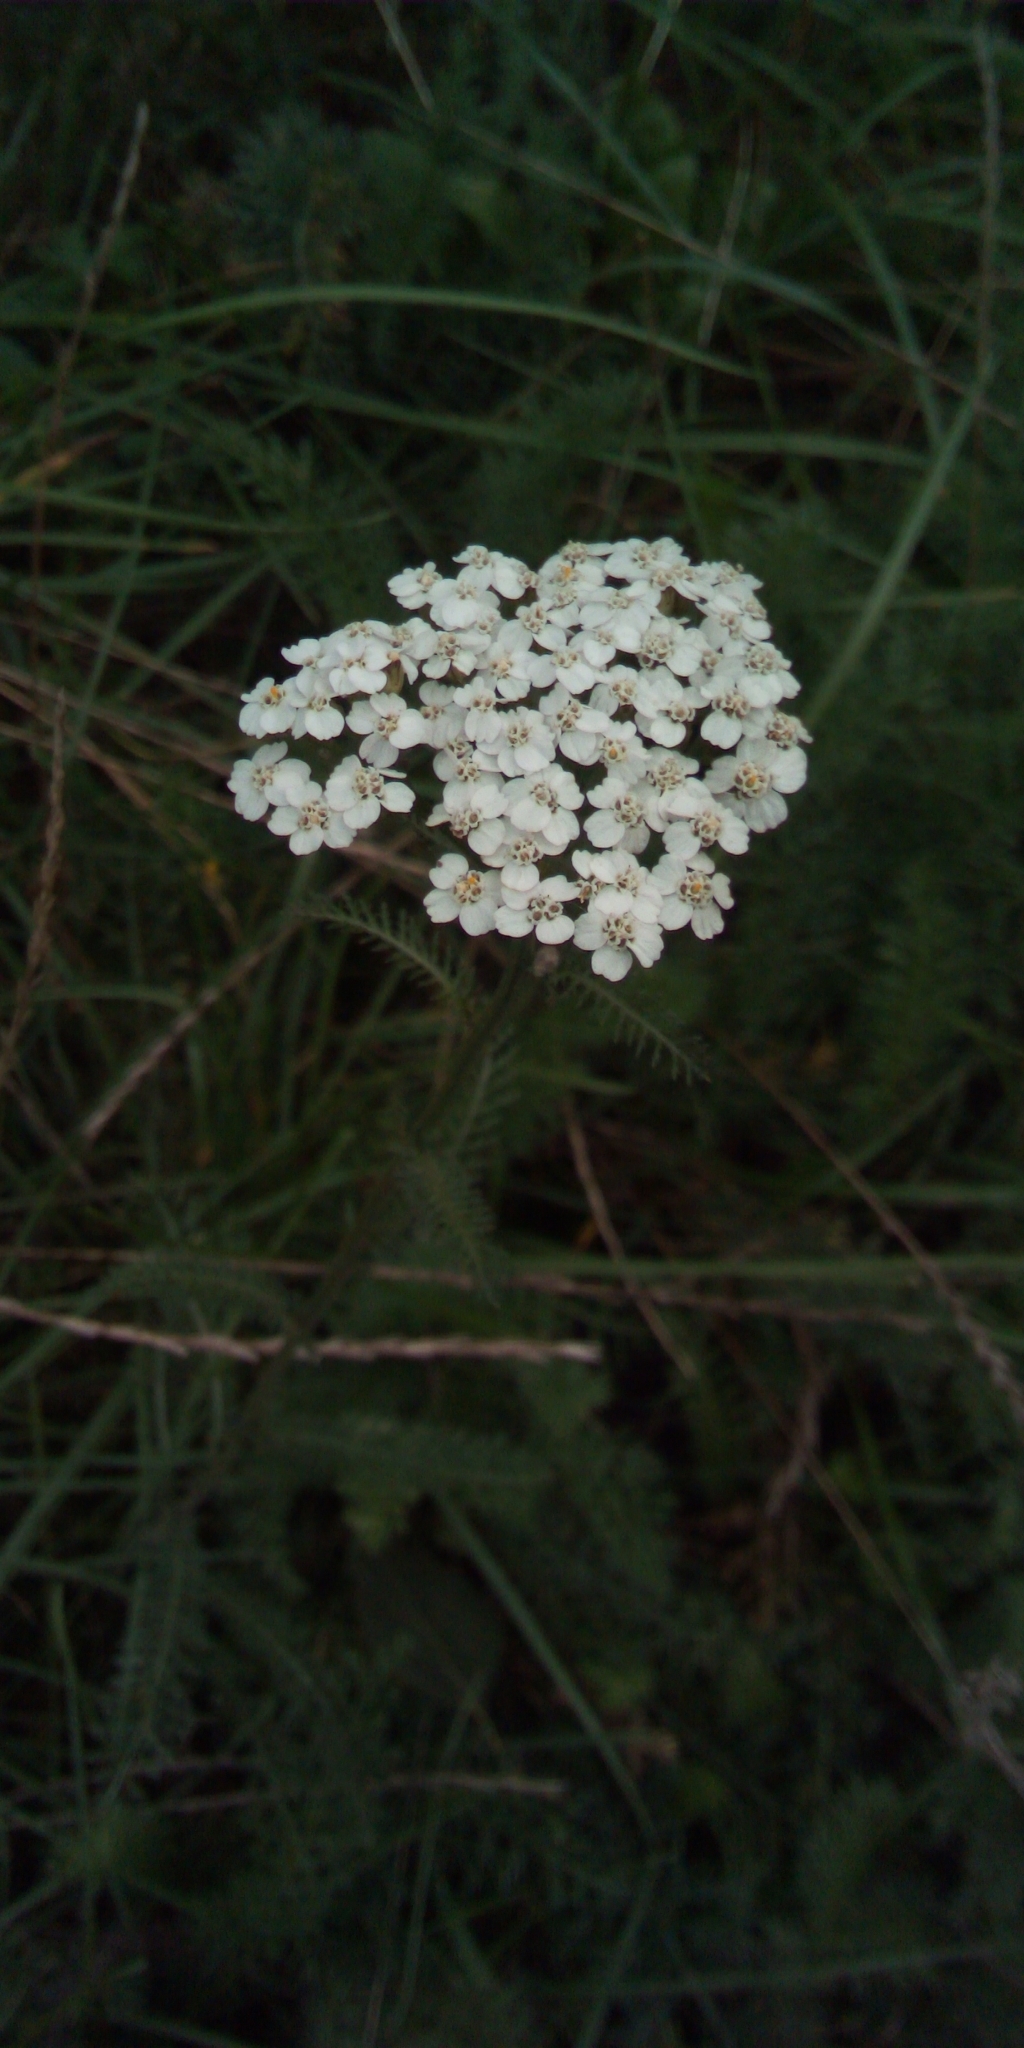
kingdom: Plantae
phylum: Tracheophyta
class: Magnoliopsida
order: Asterales
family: Asteraceae
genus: Achillea
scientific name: Achillea millefolium
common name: Yarrow
